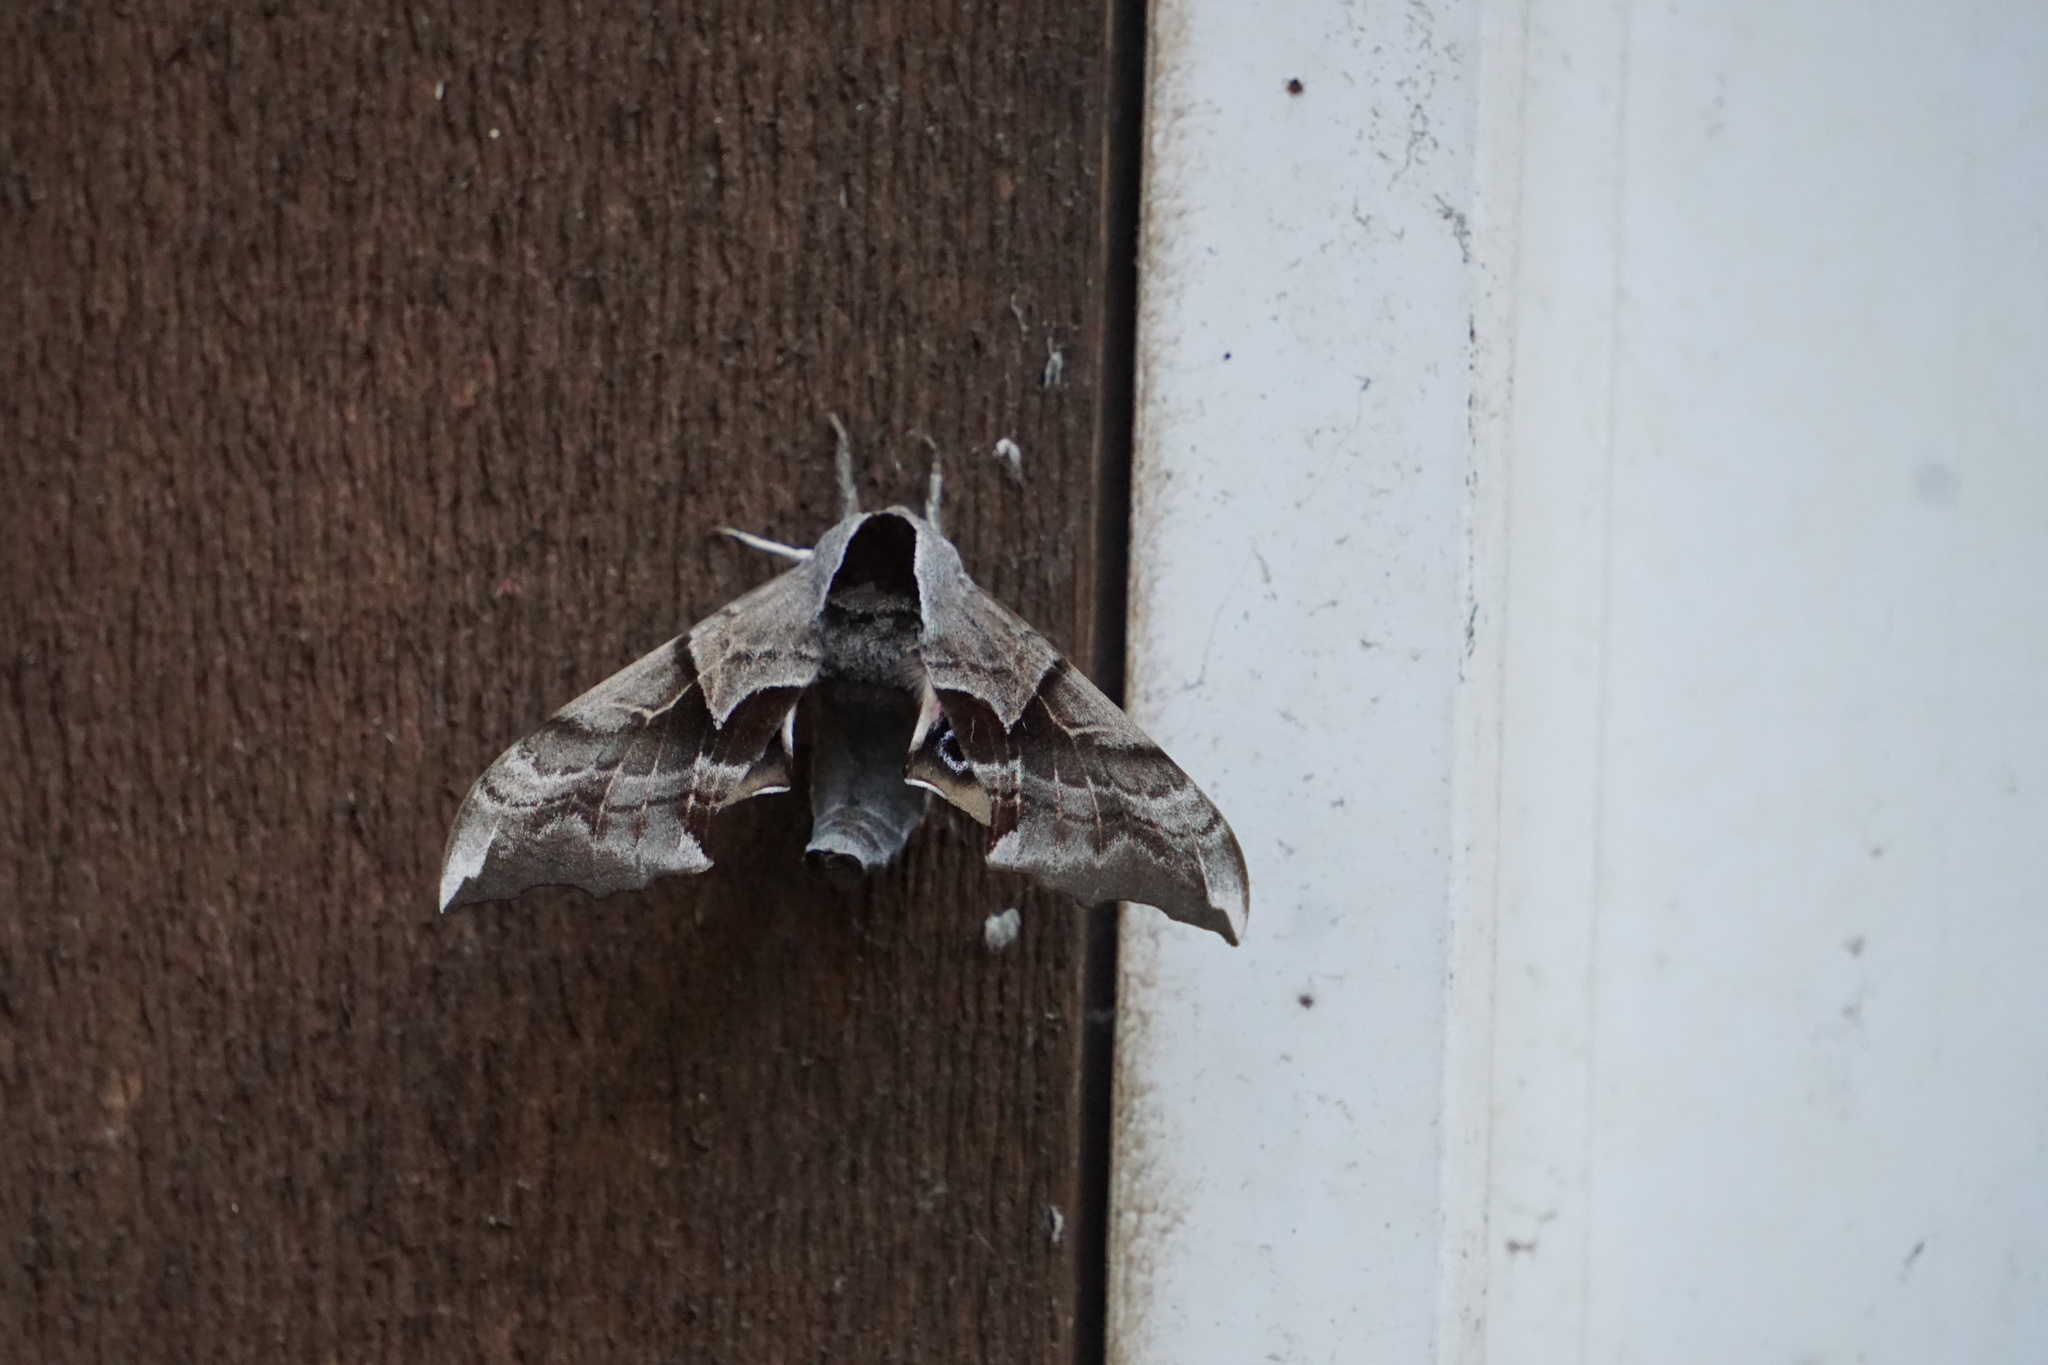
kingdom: Animalia
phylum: Arthropoda
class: Insecta
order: Lepidoptera
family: Sphingidae
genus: Smerinthus
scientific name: Smerinthus cerisyi
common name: Cerisy's sphinx moth
